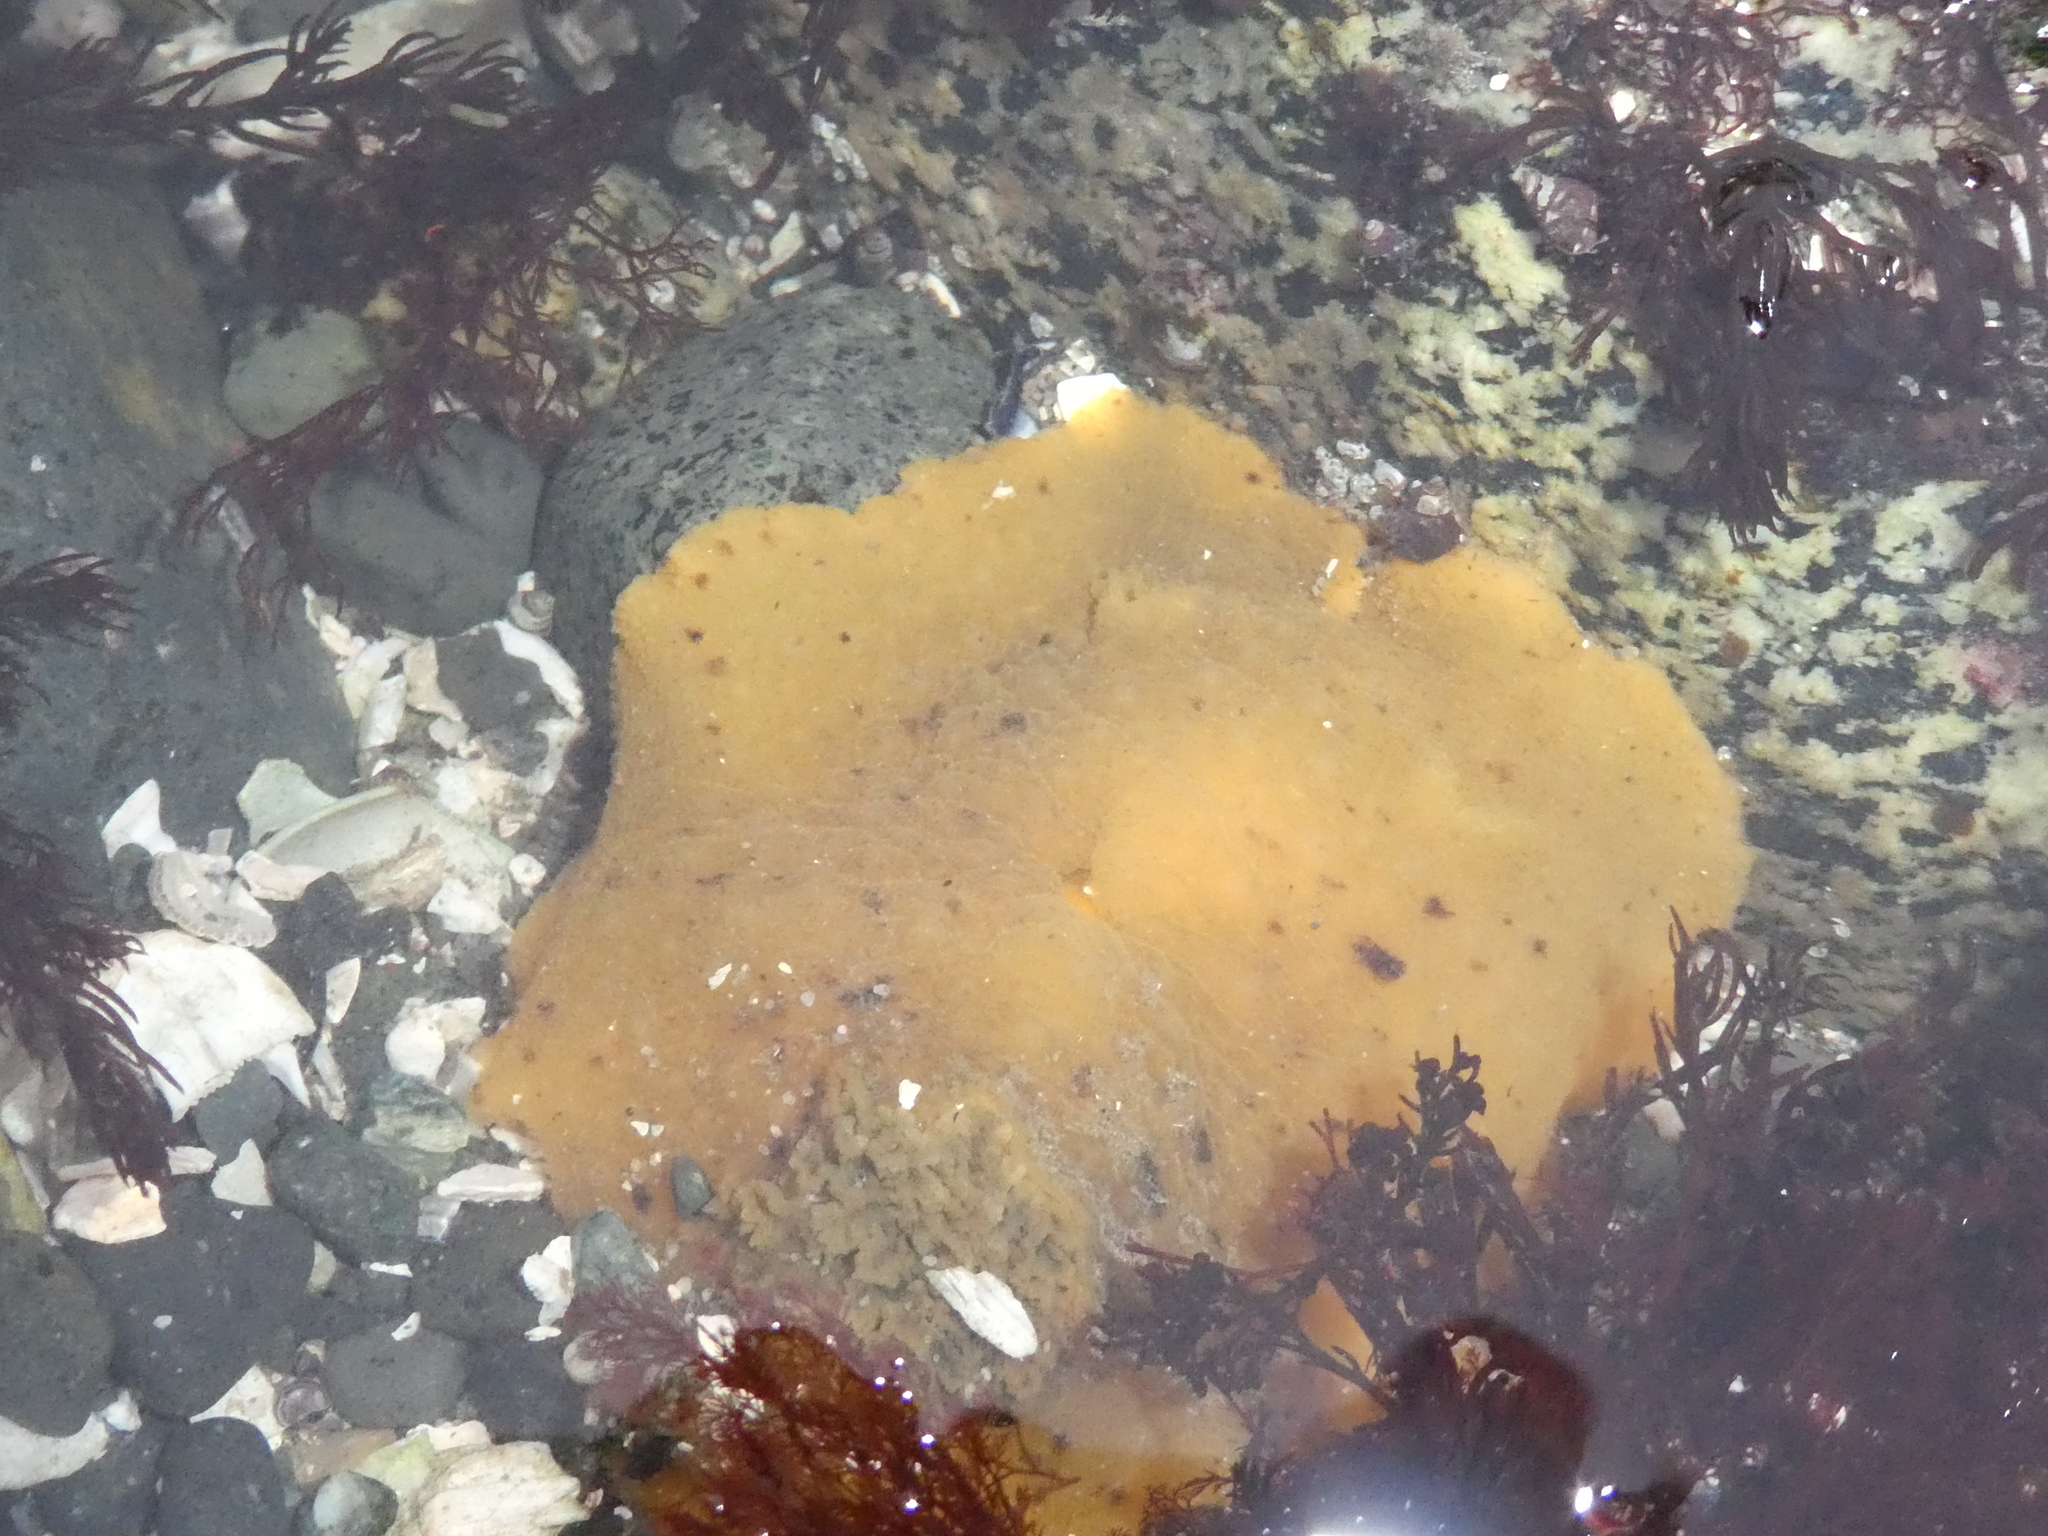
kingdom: Animalia
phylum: Mollusca
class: Gastropoda
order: Nudibranchia
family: Discodorididae
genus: Geitodoris
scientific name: Geitodoris heathi
